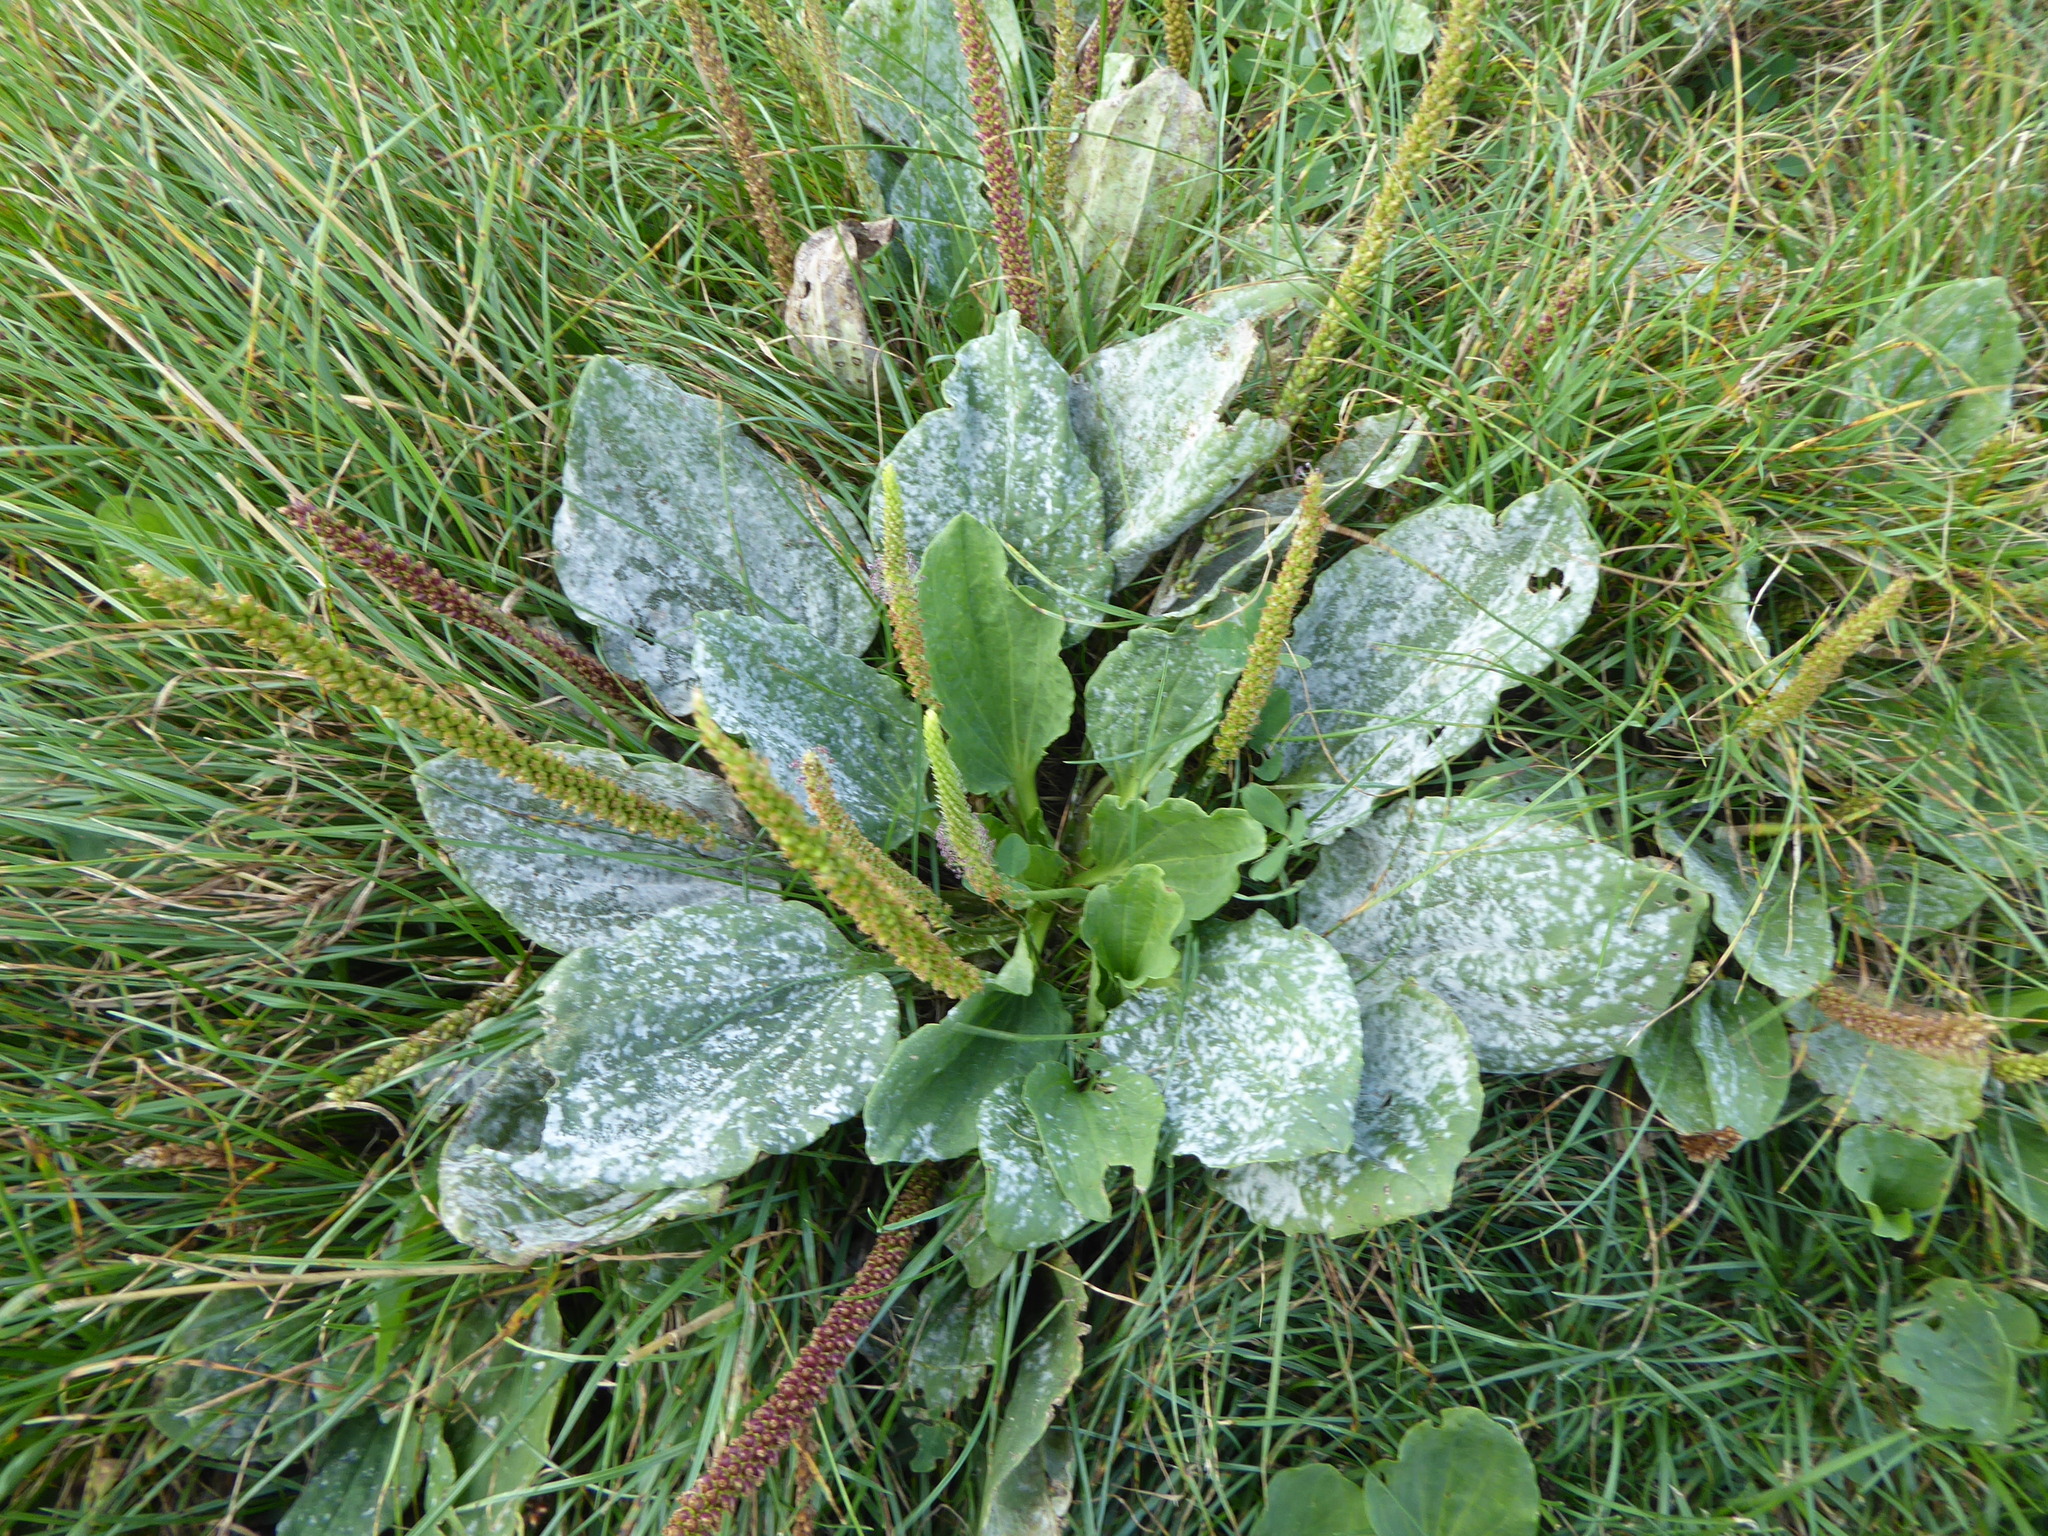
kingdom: Plantae
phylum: Tracheophyta
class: Magnoliopsida
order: Lamiales
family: Plantaginaceae
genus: Plantago
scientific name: Plantago major
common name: Common plantain
